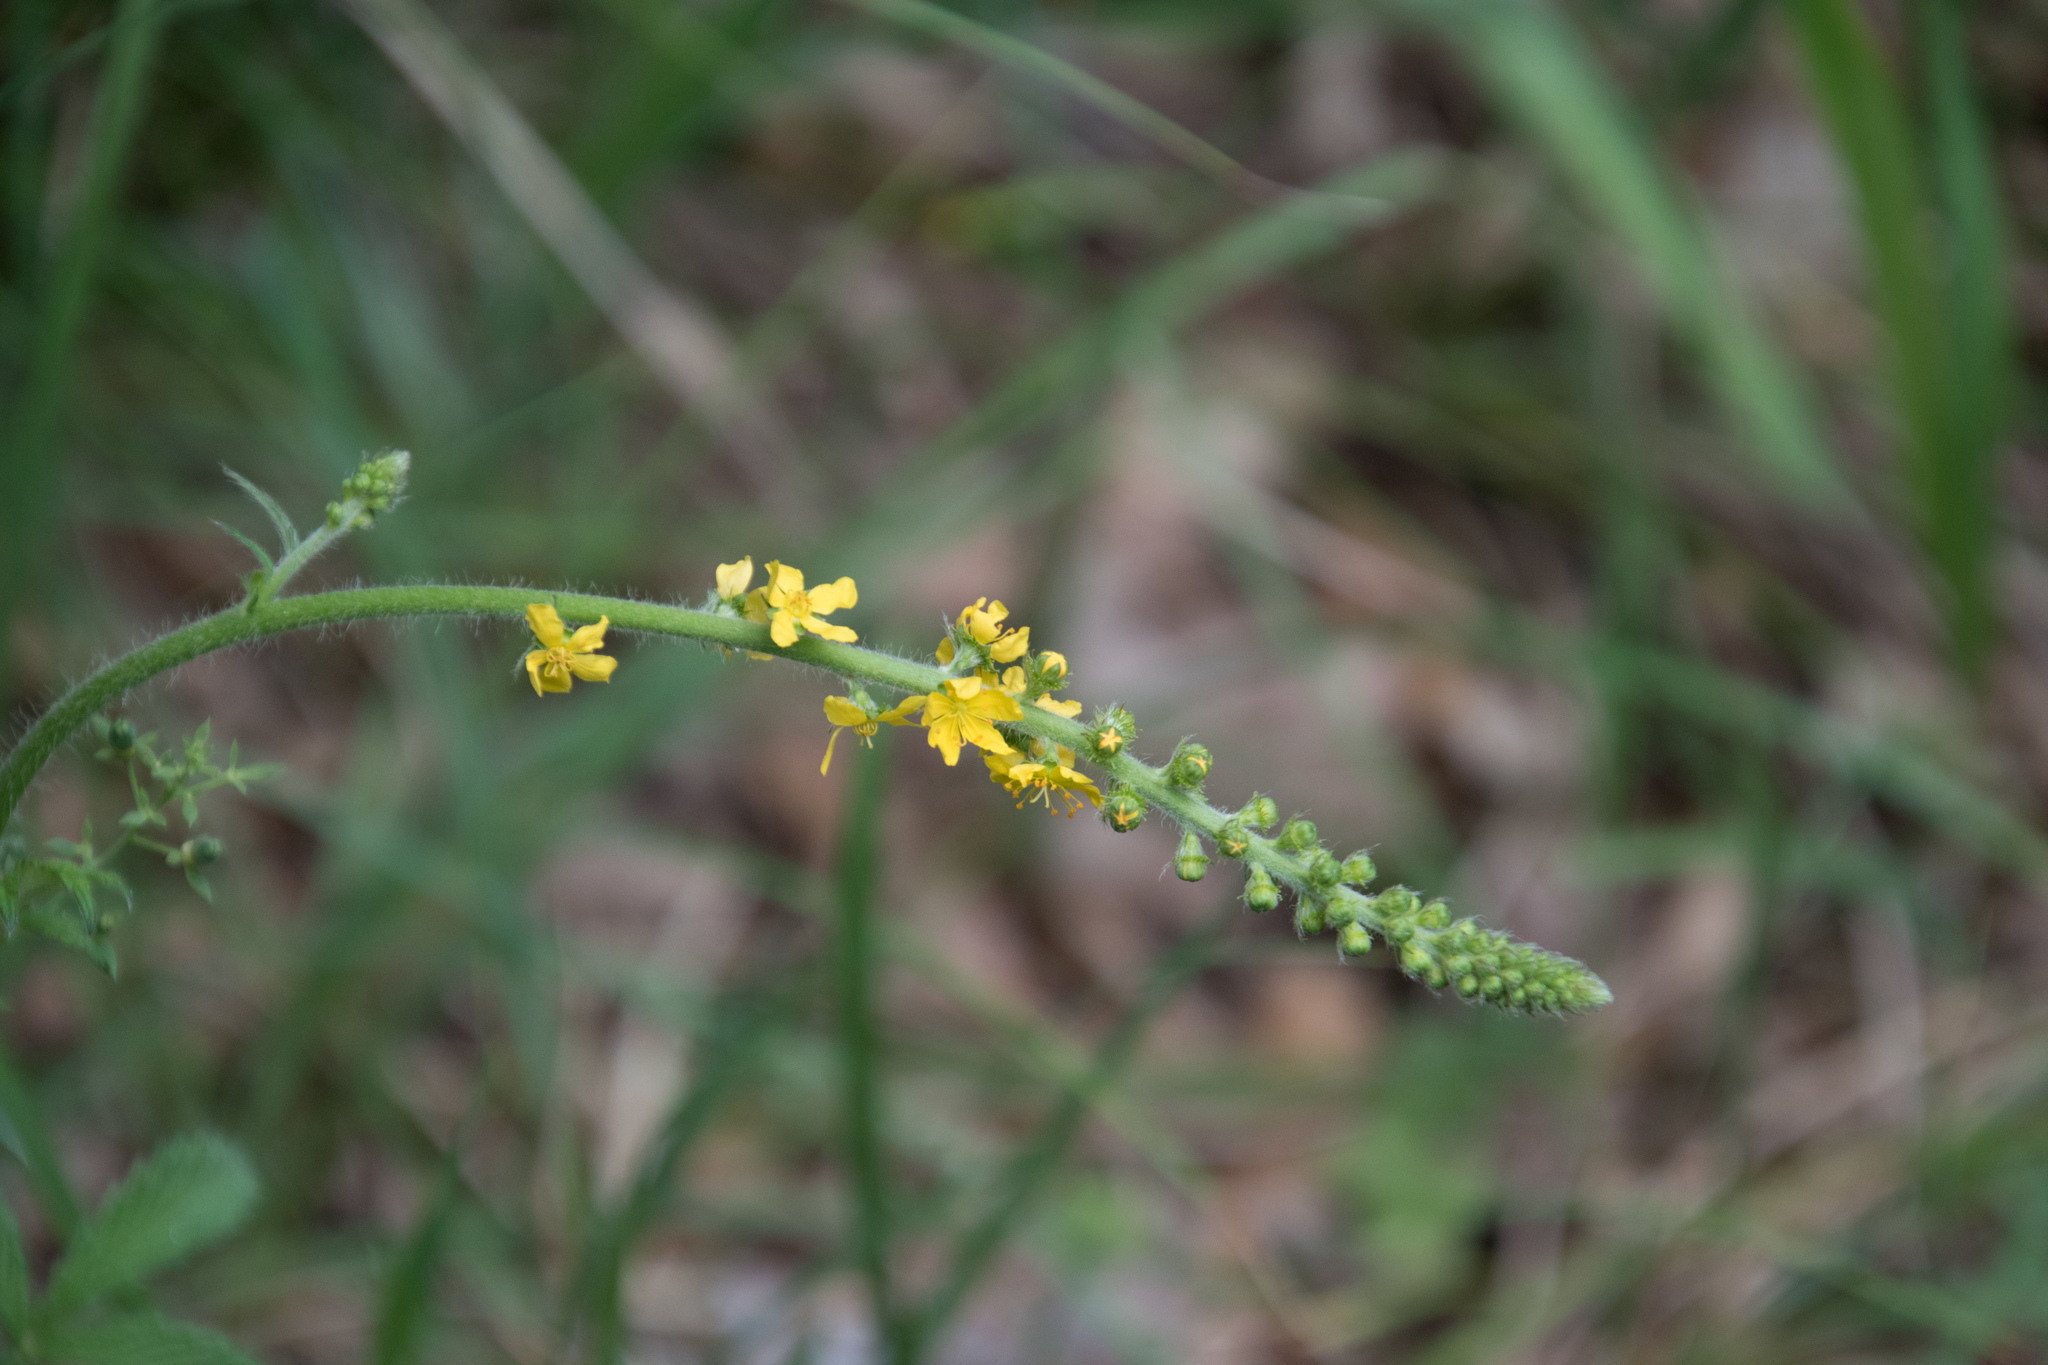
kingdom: Plantae
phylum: Tracheophyta
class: Magnoliopsida
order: Rosales
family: Rosaceae
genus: Agrimonia
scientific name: Agrimonia eupatoria
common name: Agrimony
